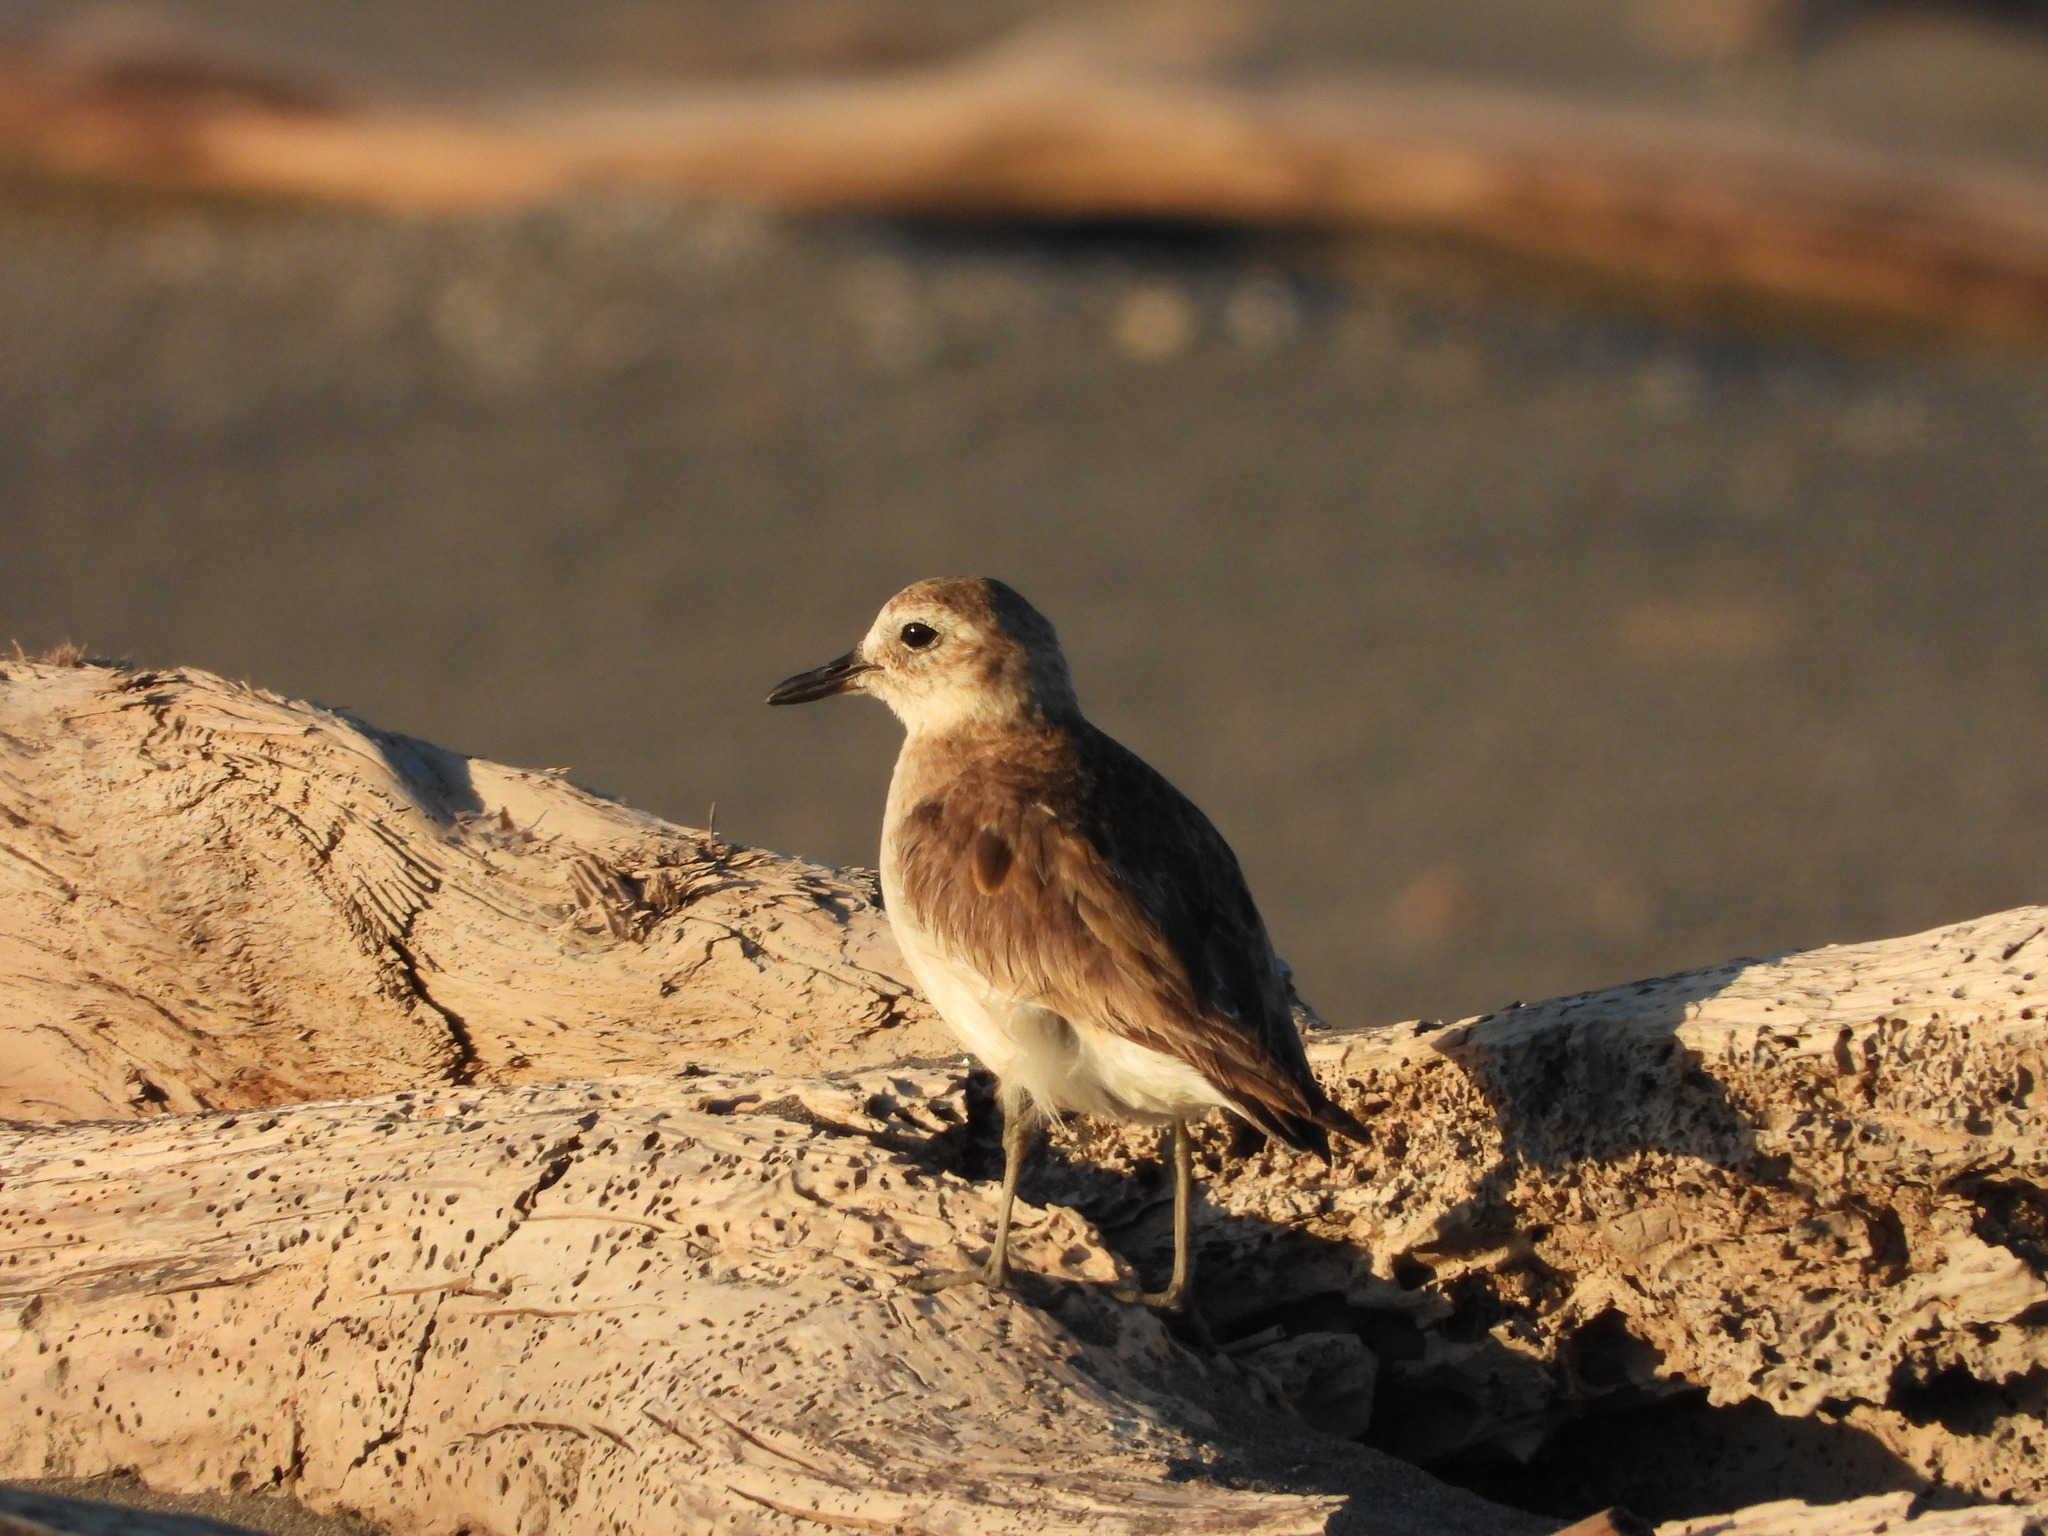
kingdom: Animalia
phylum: Chordata
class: Aves
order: Charadriiformes
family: Charadriidae
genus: Anarhynchus
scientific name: Anarhynchus
